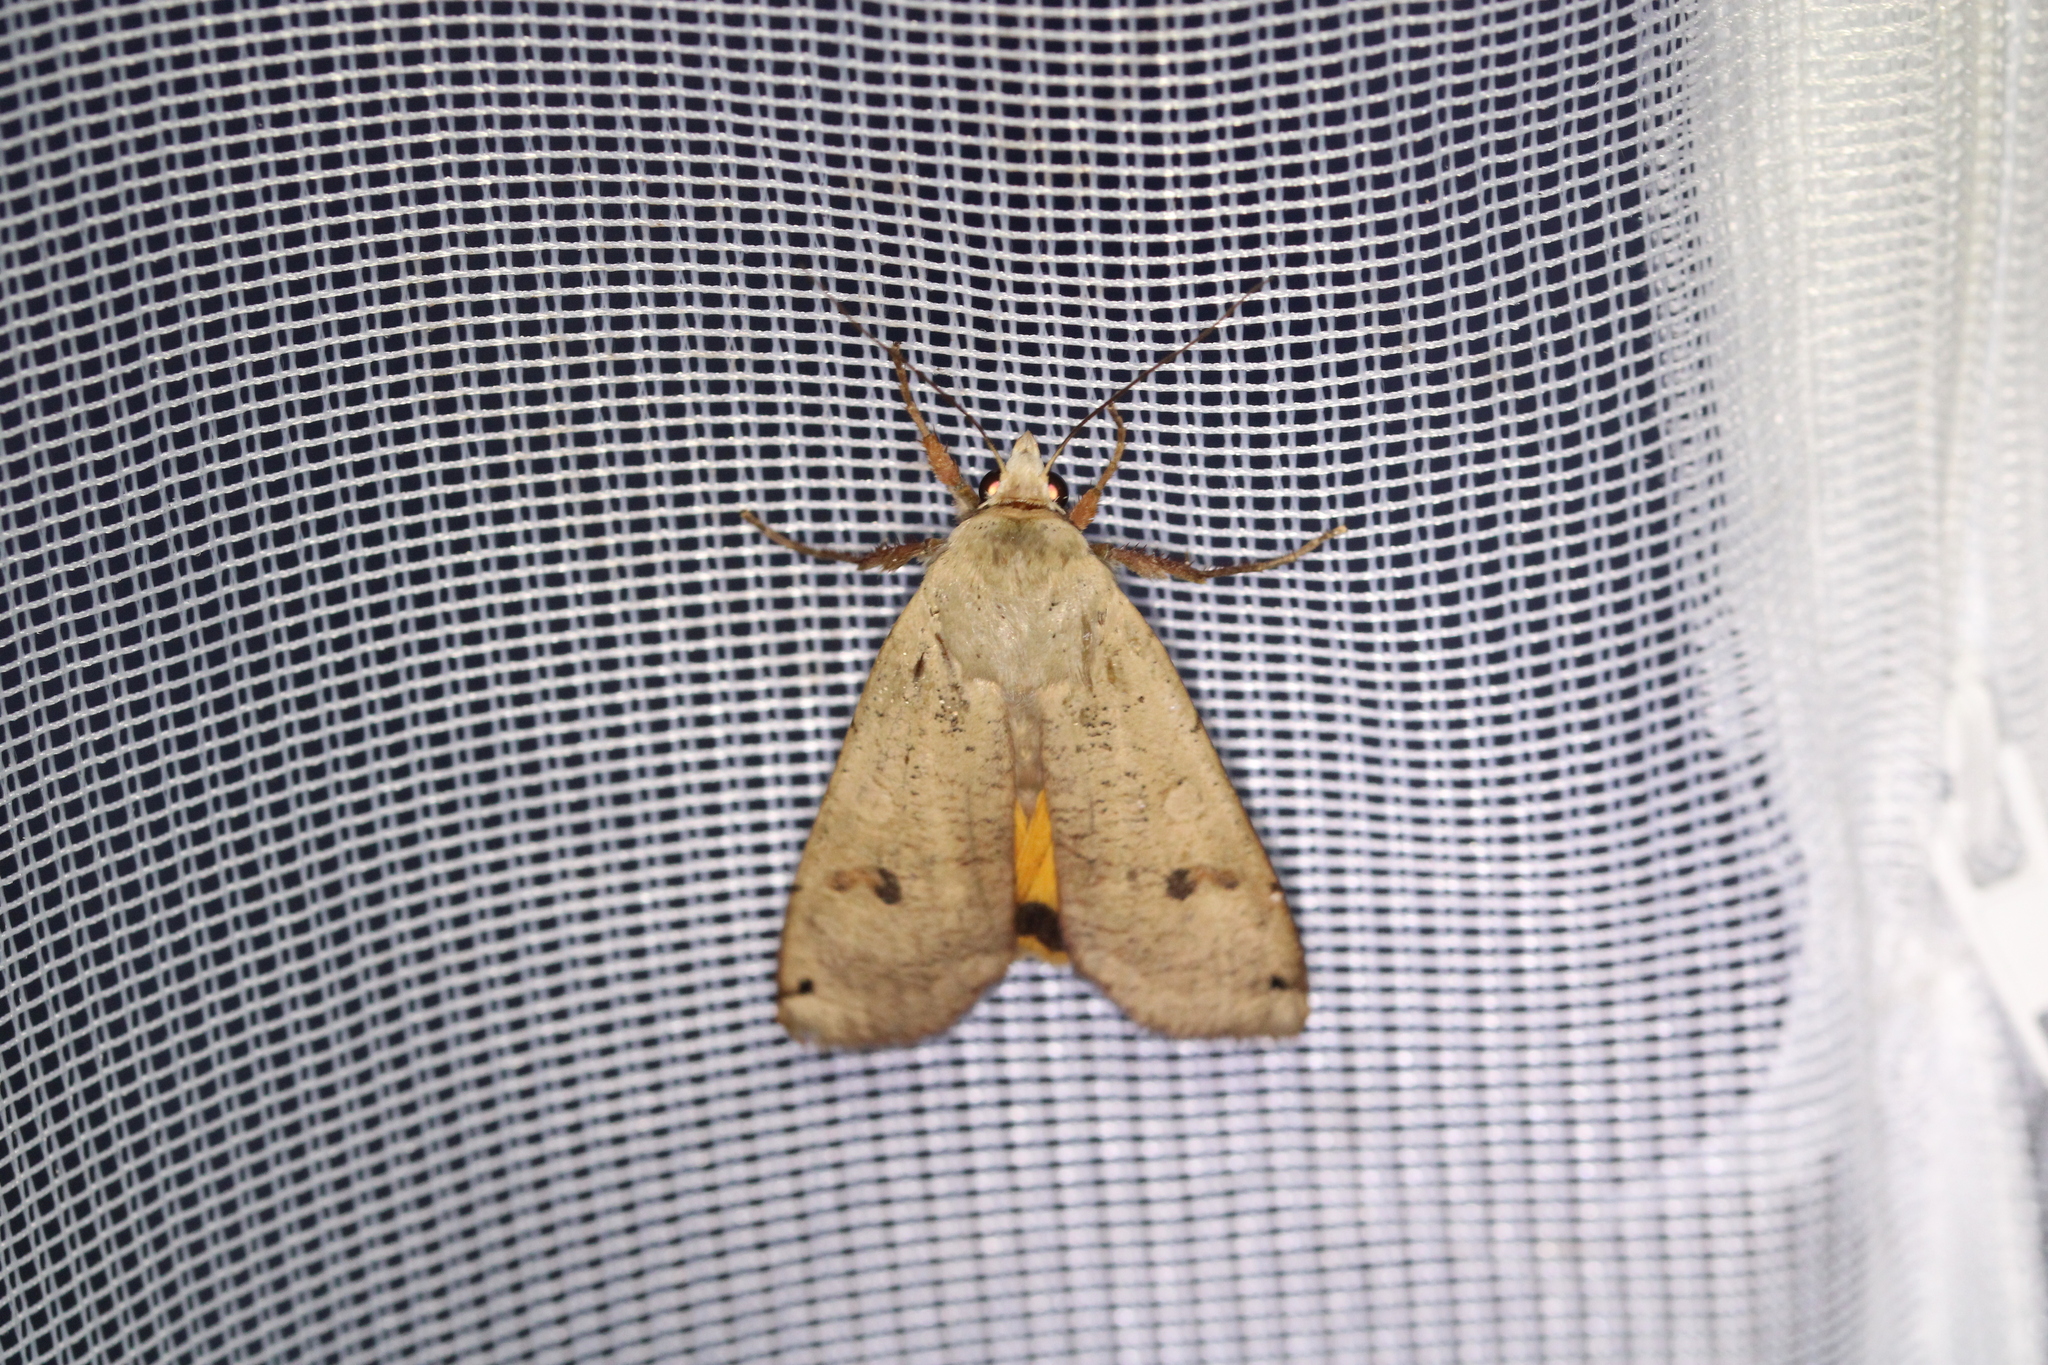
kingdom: Animalia
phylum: Arthropoda
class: Insecta
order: Lepidoptera
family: Noctuidae
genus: Noctua
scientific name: Noctua pronuba
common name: Large yellow underwing
